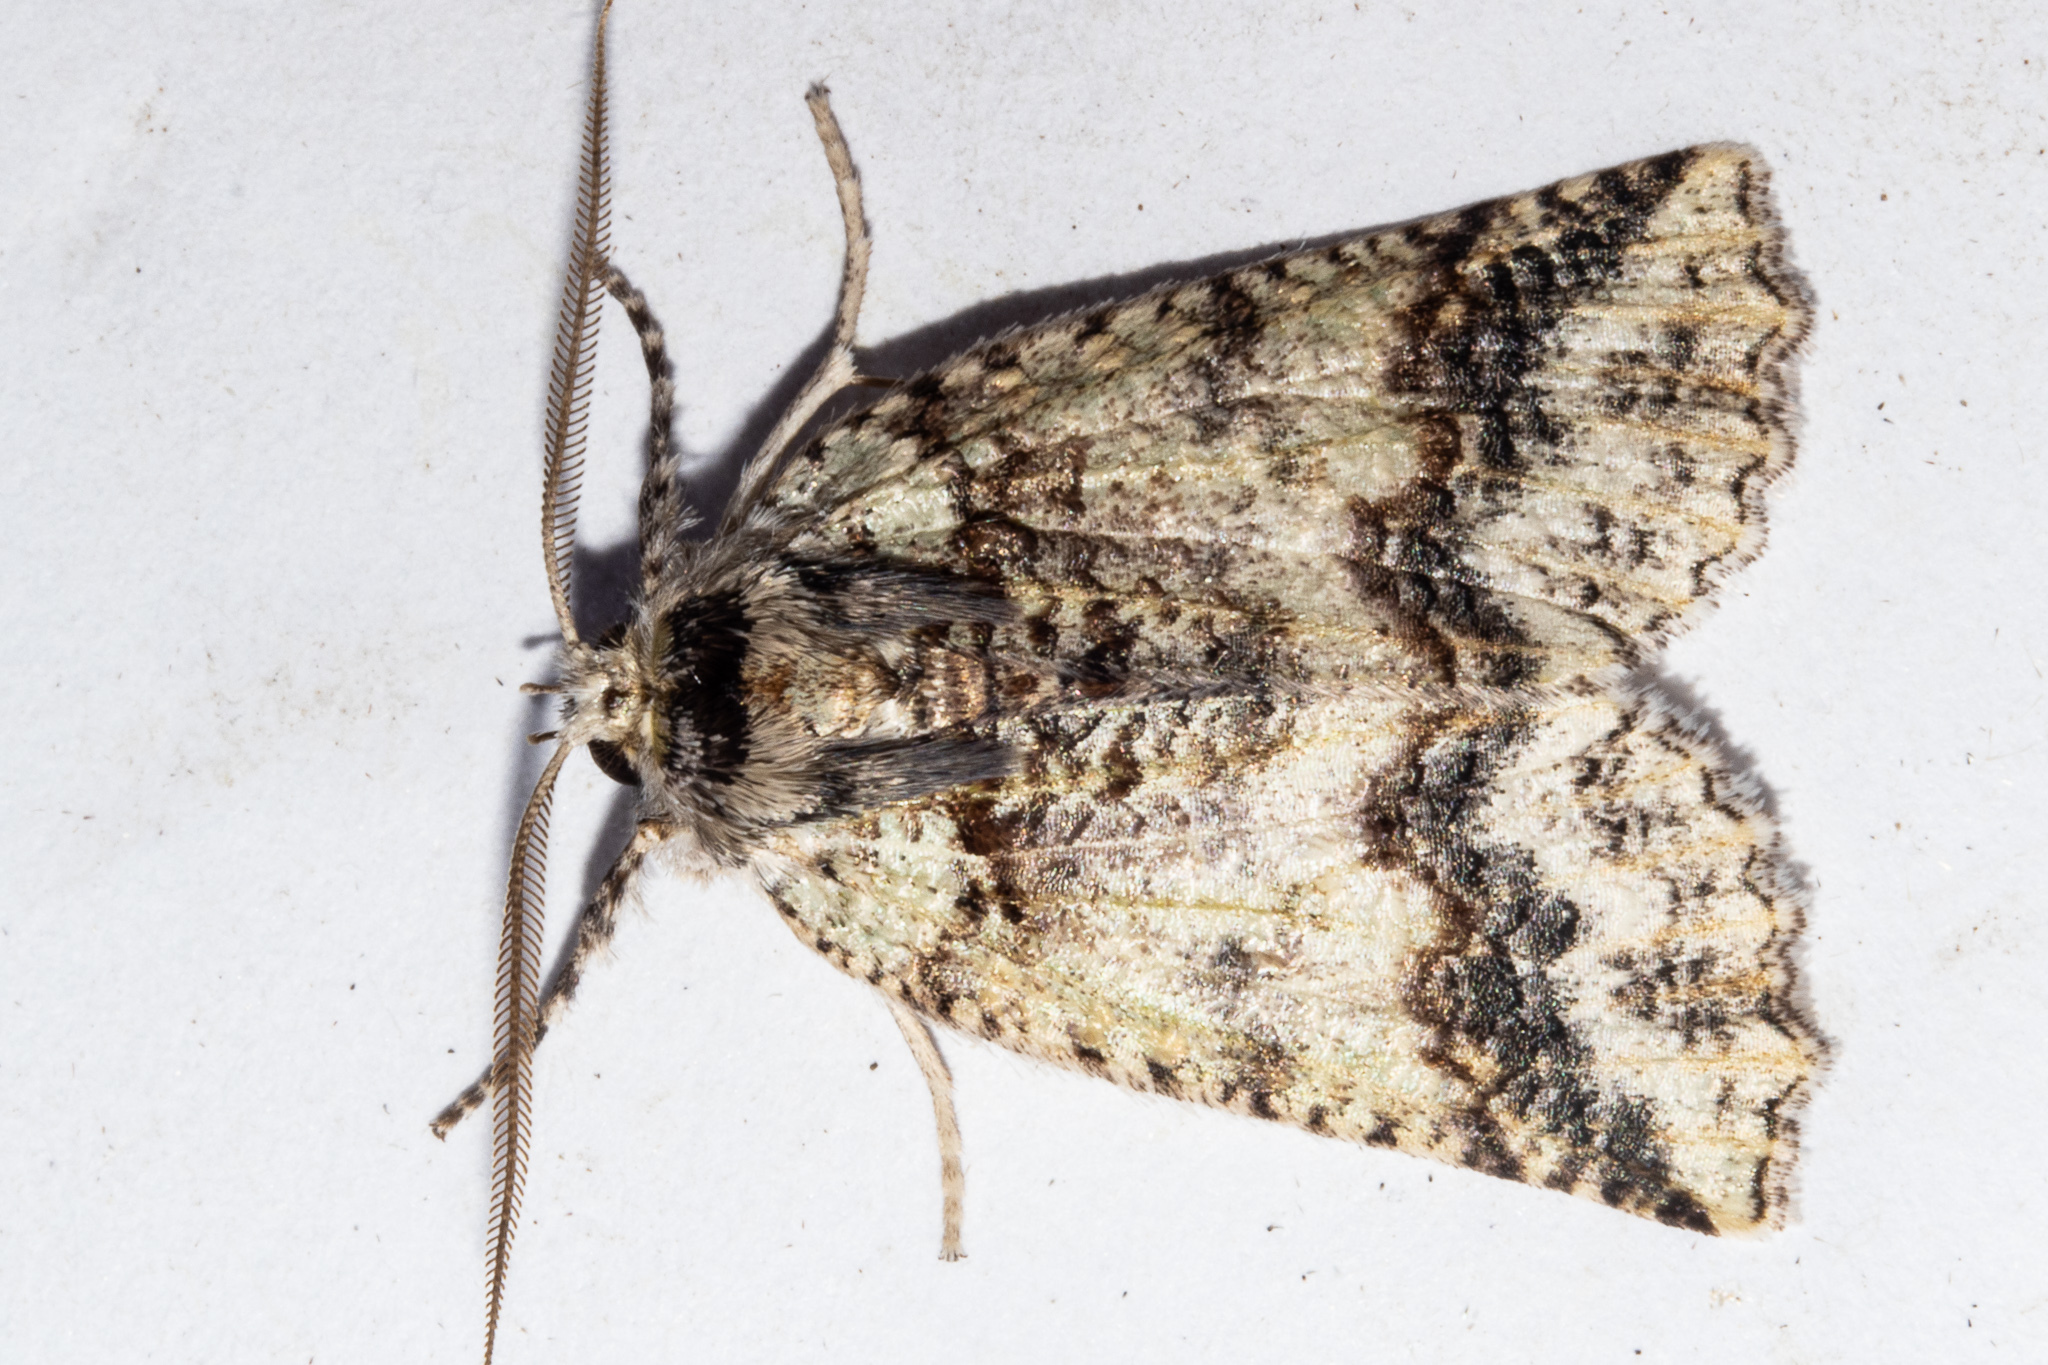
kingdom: Animalia
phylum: Arthropoda
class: Insecta
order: Lepidoptera
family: Geometridae
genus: Declana
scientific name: Declana floccosa
